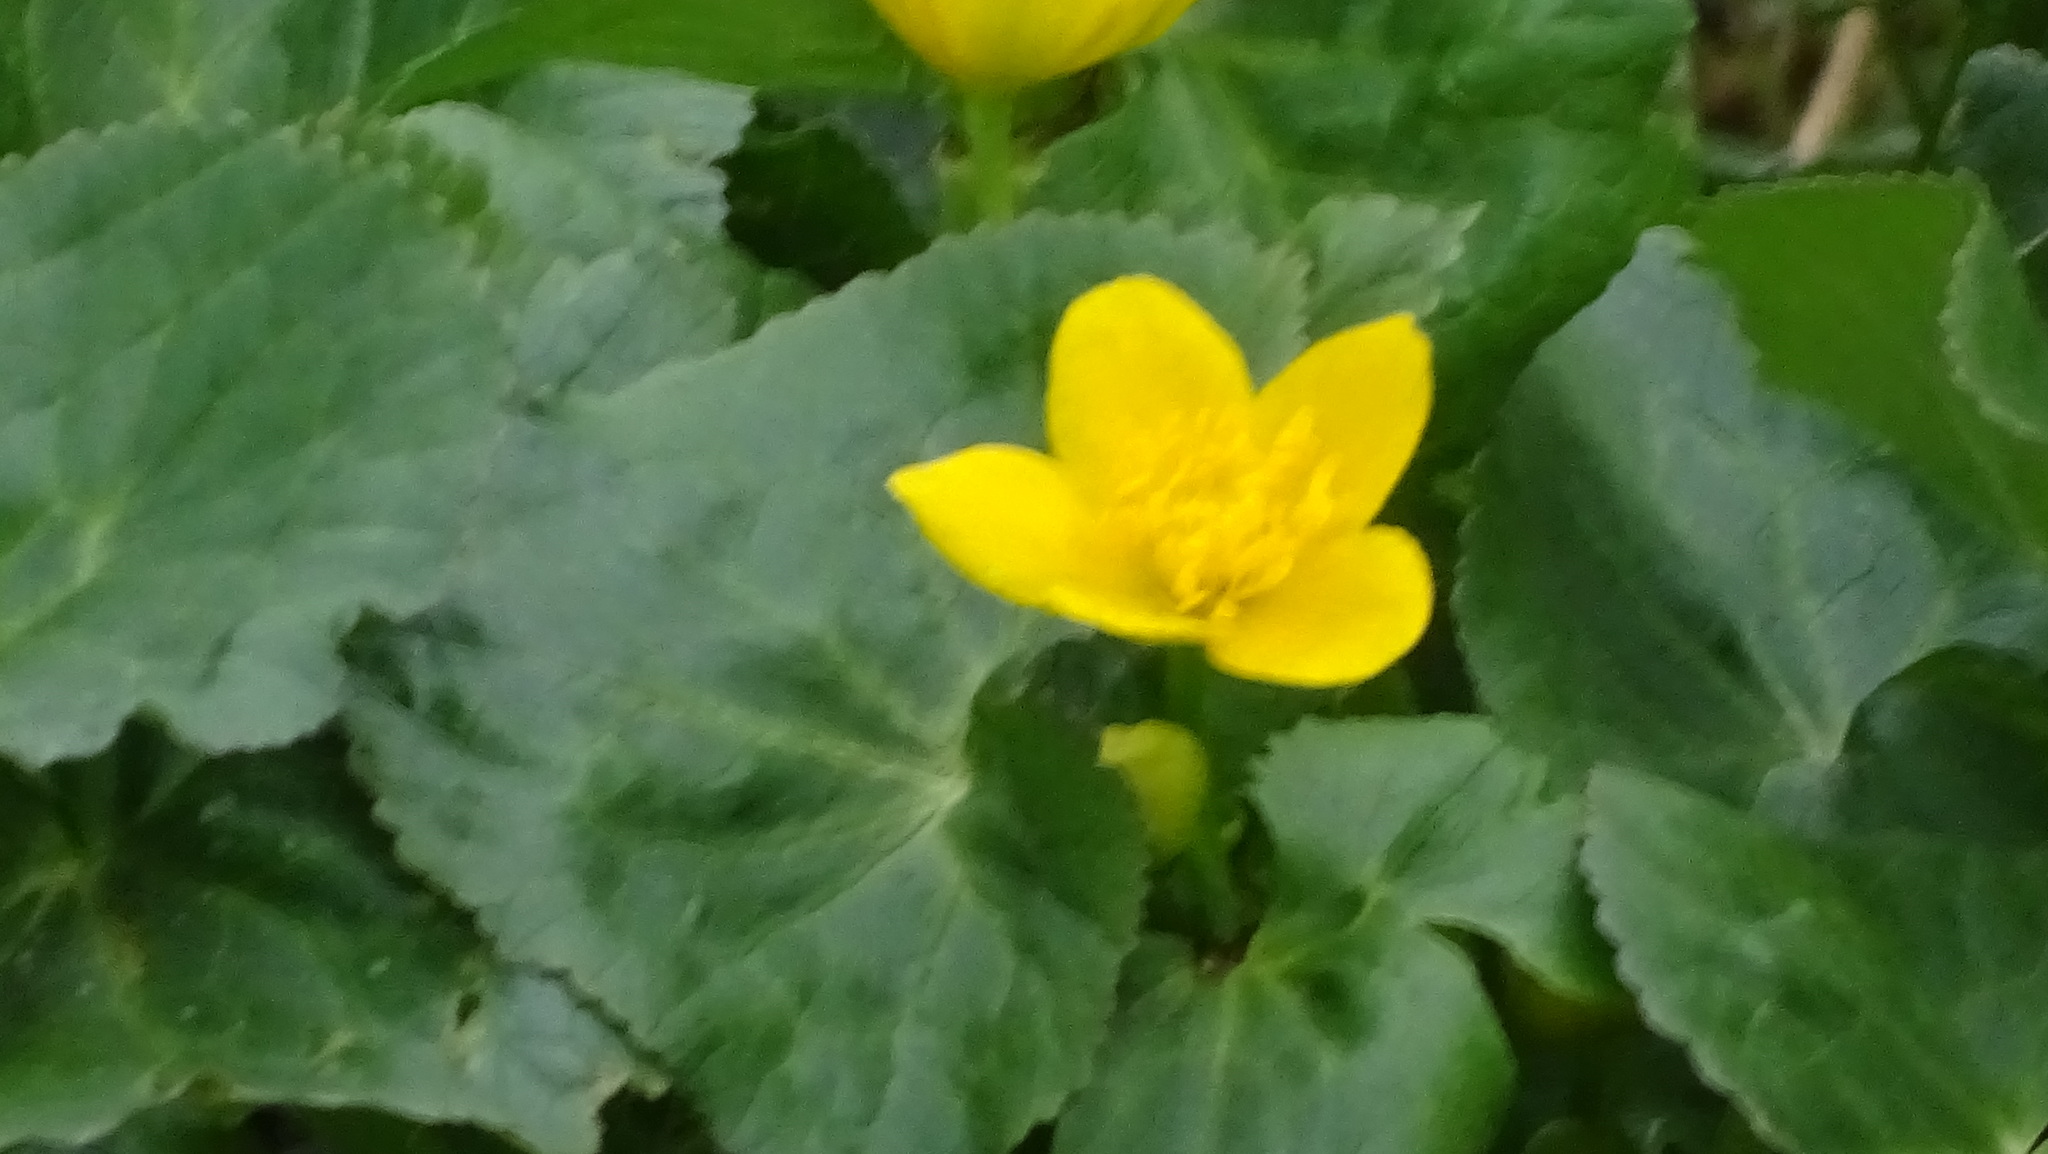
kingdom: Plantae
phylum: Tracheophyta
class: Magnoliopsida
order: Ranunculales
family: Ranunculaceae
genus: Caltha
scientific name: Caltha palustris
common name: Marsh marigold
